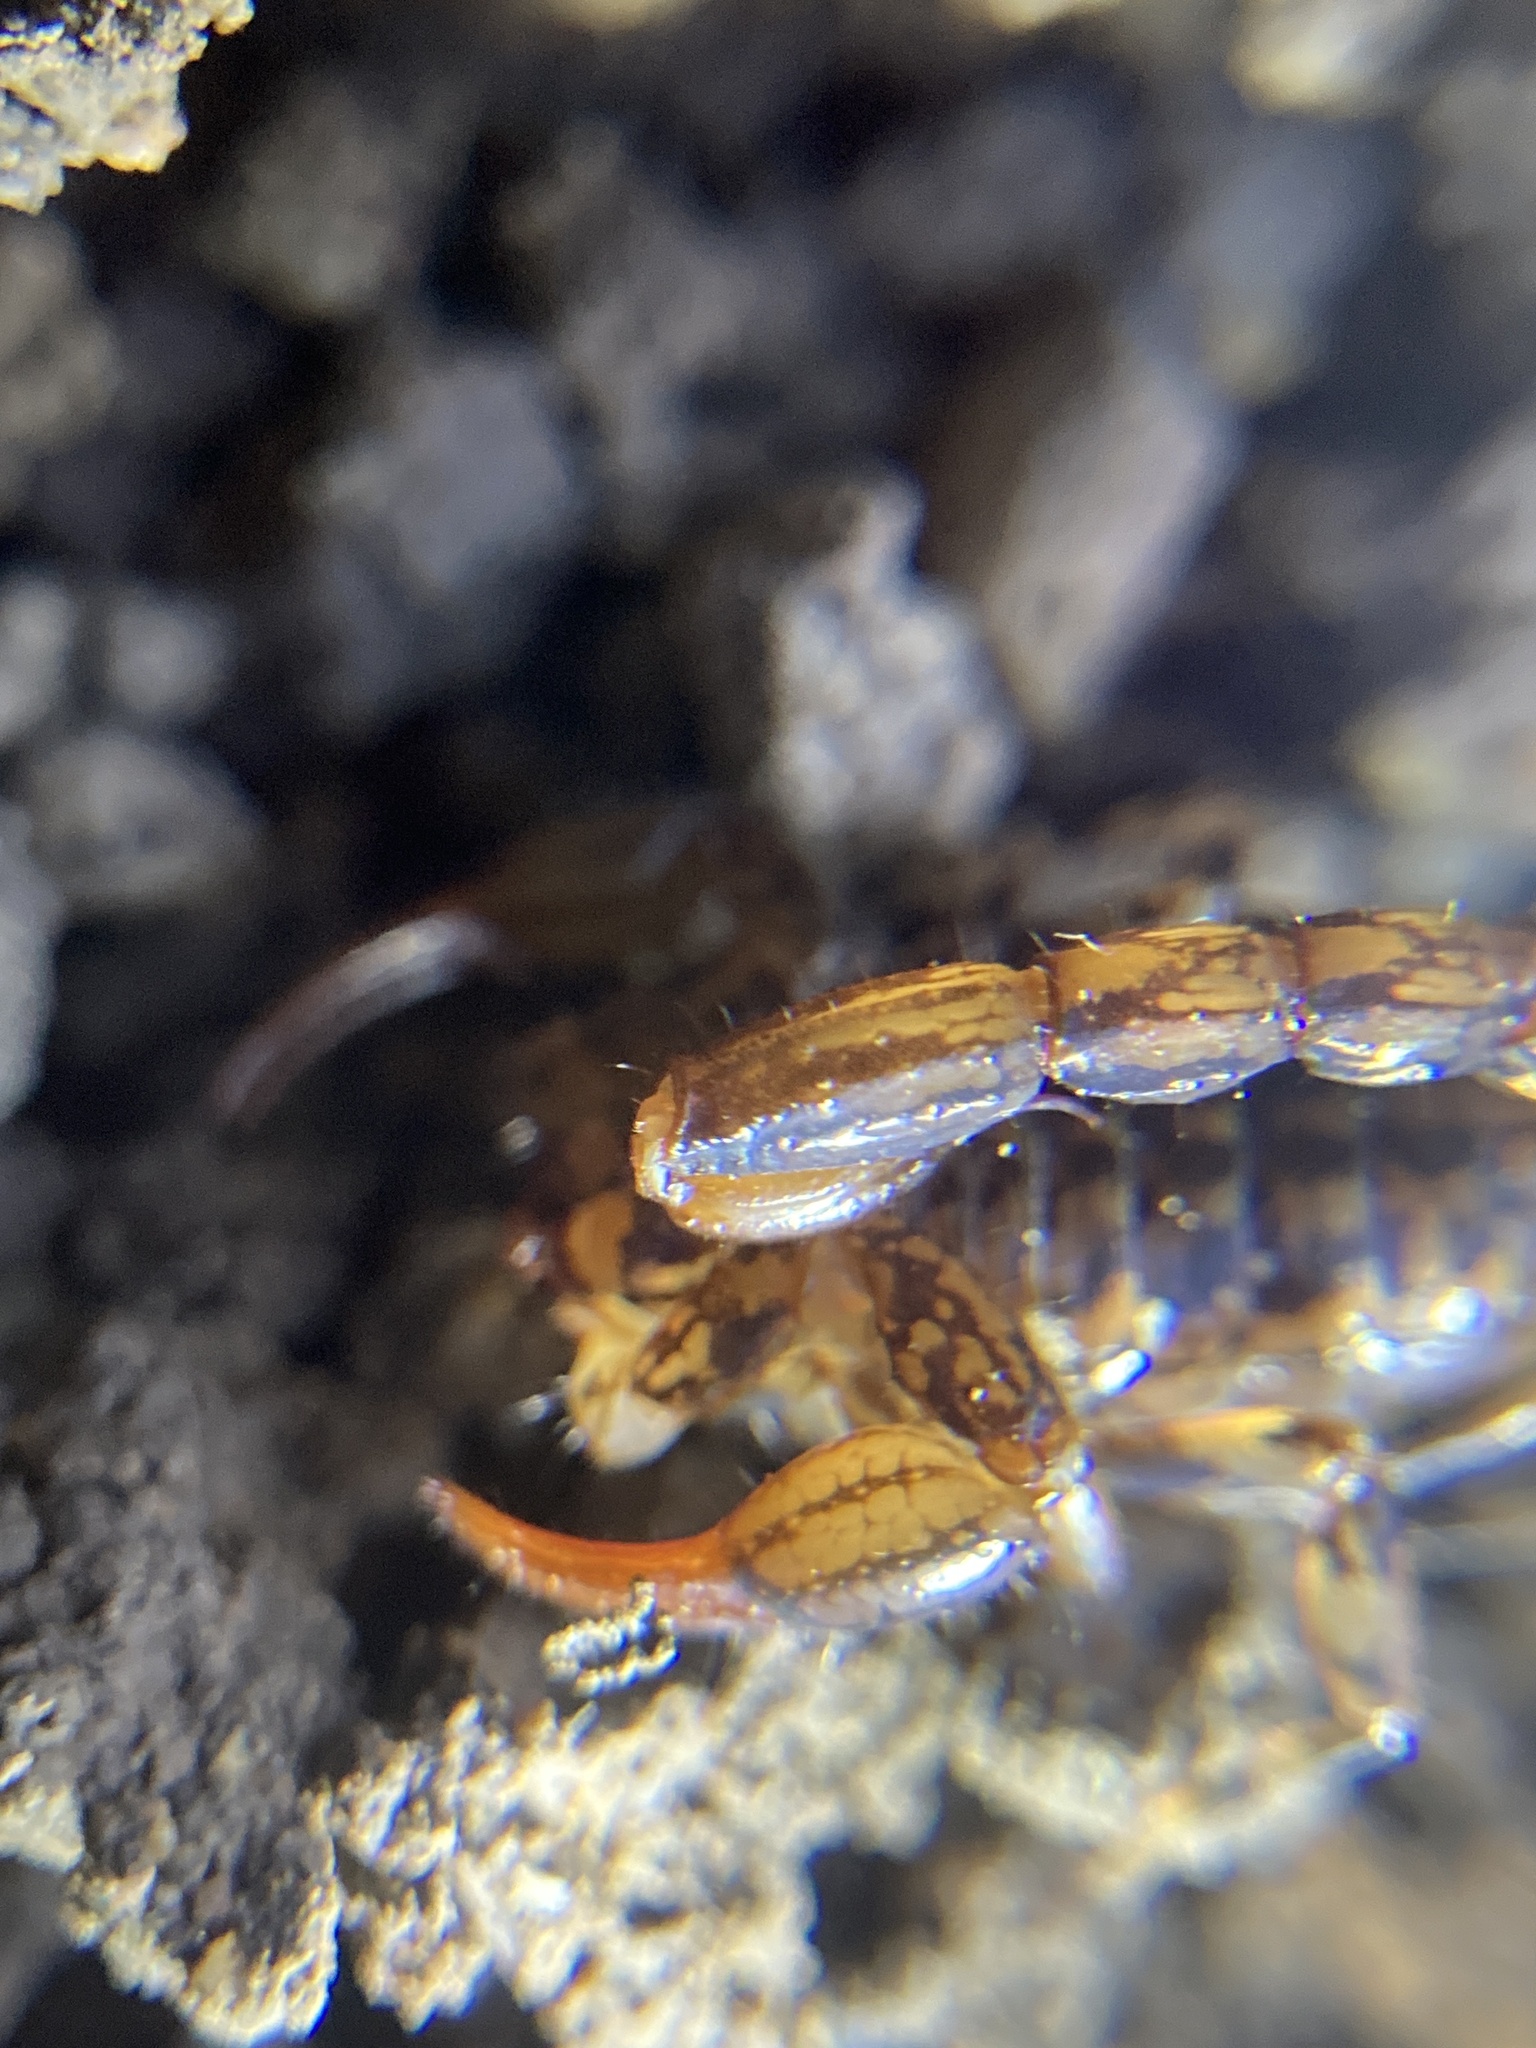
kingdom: Animalia
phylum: Arthropoda
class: Arachnida
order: Scorpiones
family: Bothriuridae
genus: Cercophonius
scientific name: Cercophonius squama
